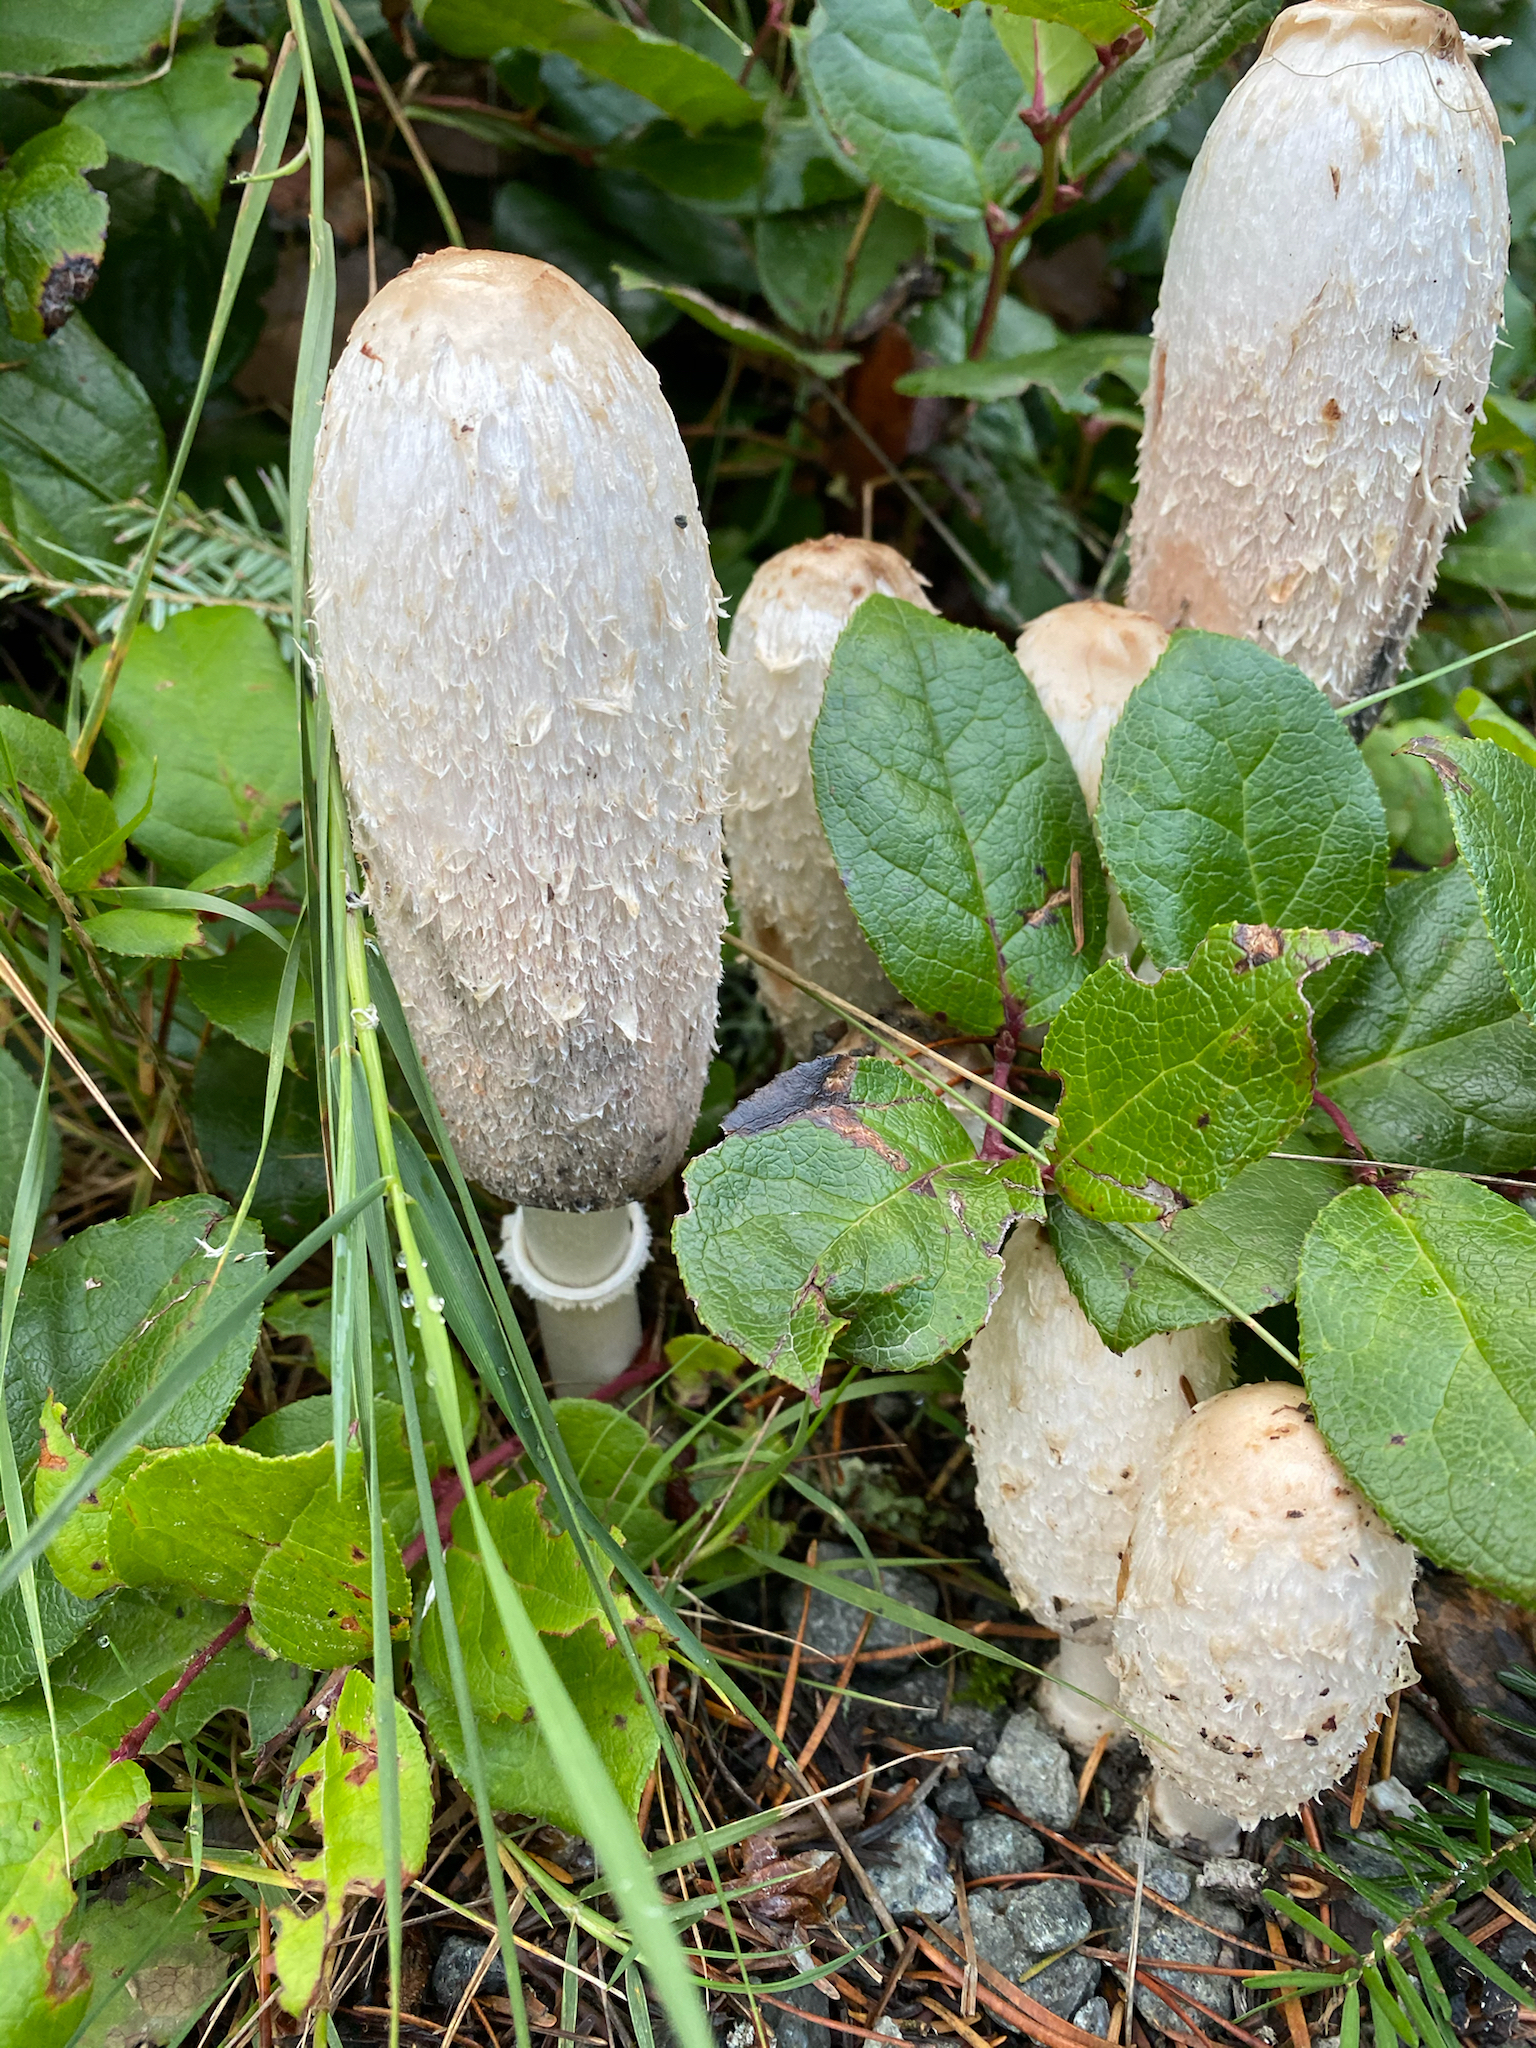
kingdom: Fungi
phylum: Basidiomycota
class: Agaricomycetes
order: Agaricales
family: Agaricaceae
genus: Coprinus
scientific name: Coprinus comatus
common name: Lawyer's wig
